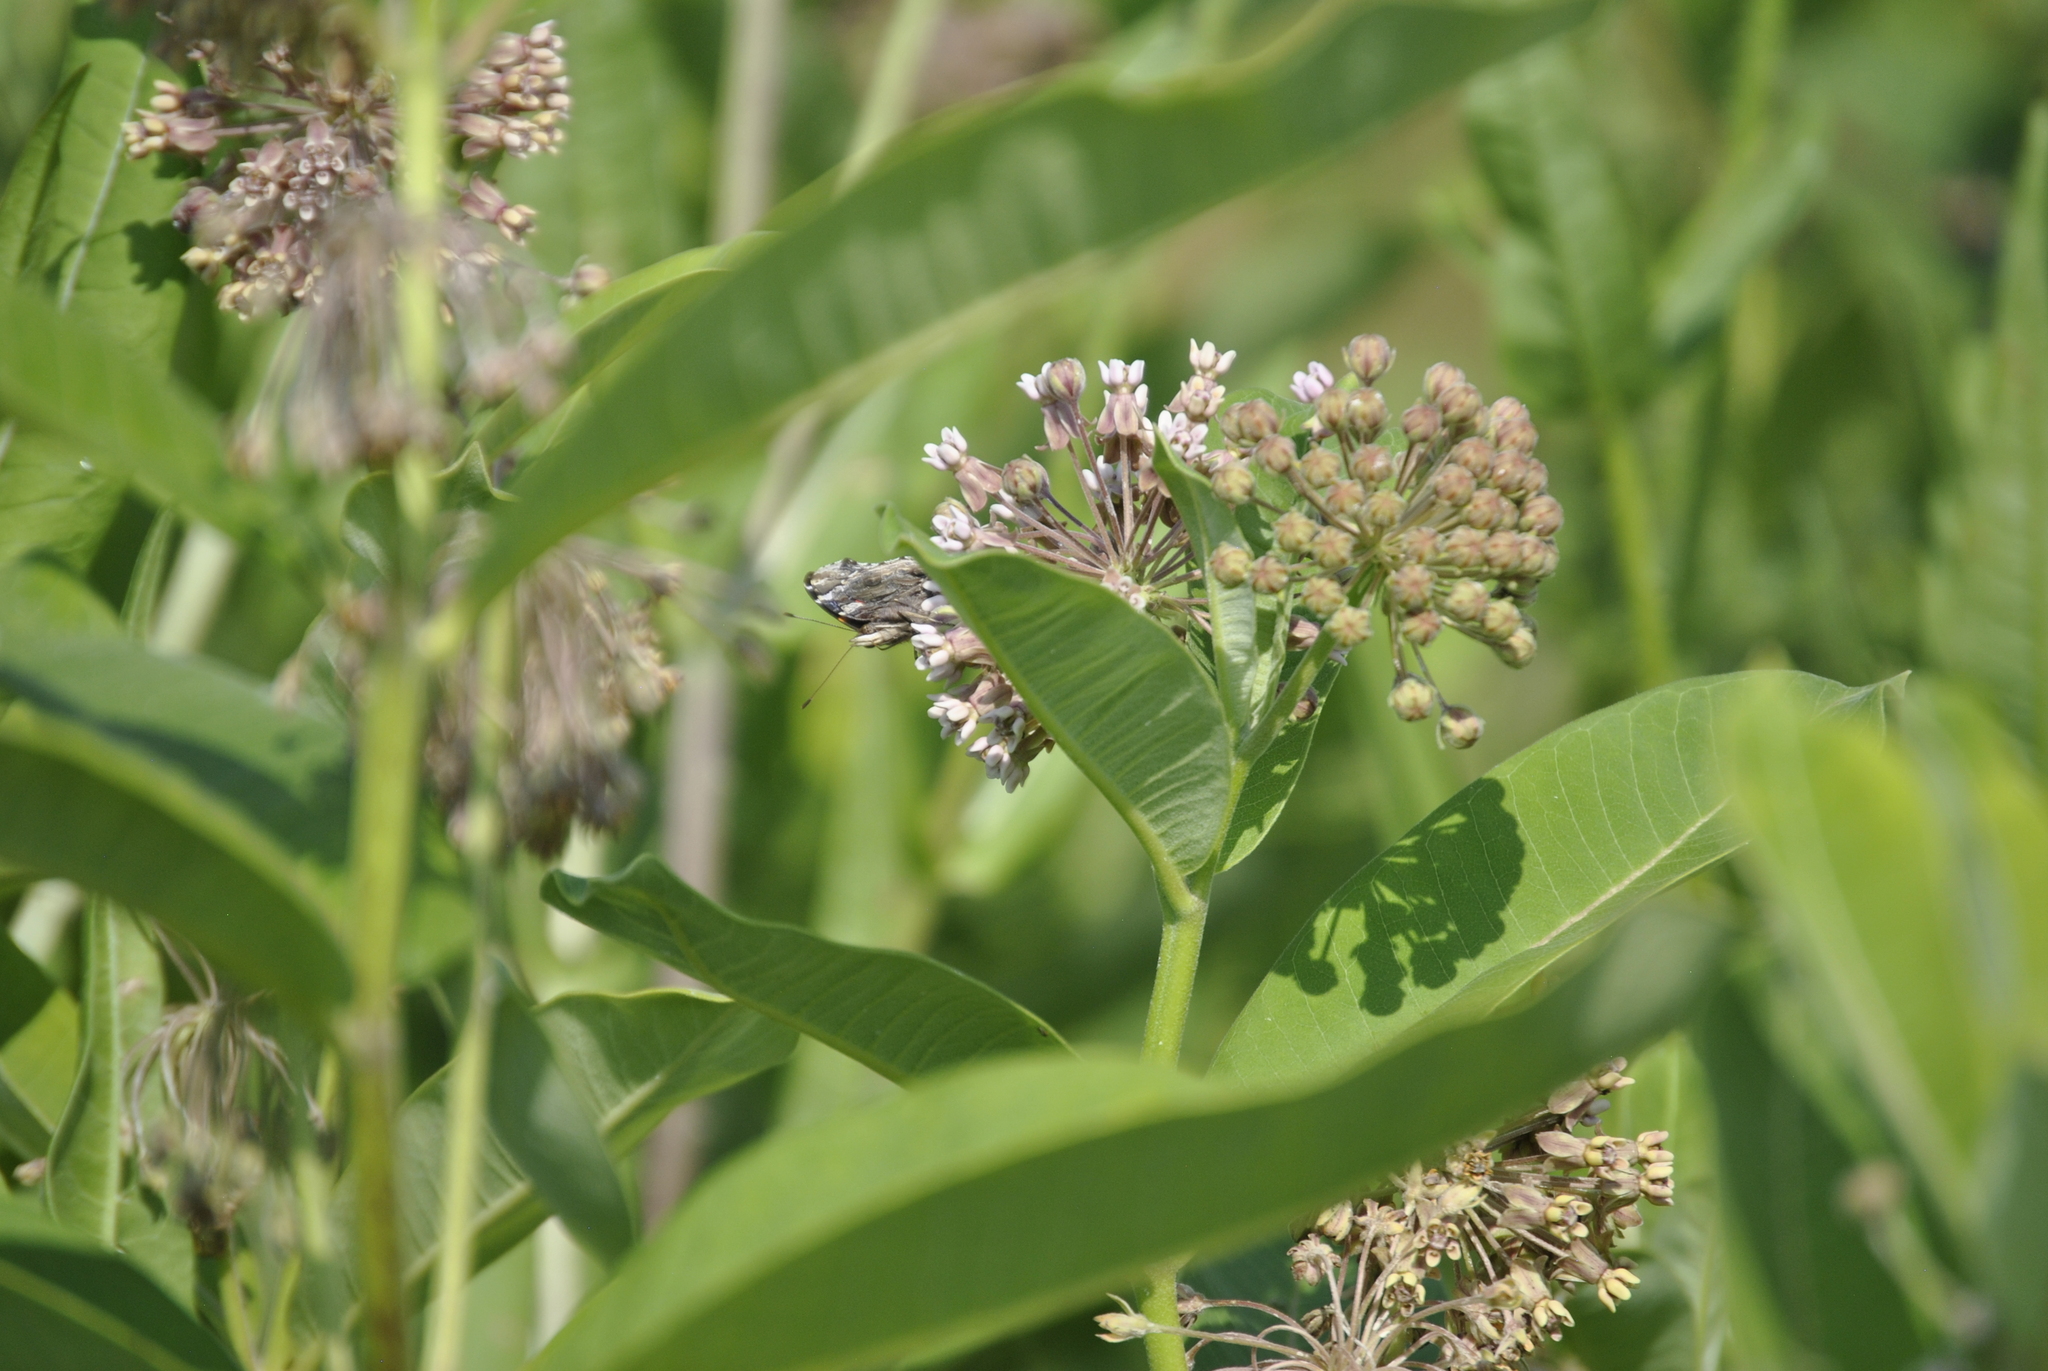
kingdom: Plantae
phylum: Tracheophyta
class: Magnoliopsida
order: Gentianales
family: Apocynaceae
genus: Asclepias
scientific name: Asclepias syriaca
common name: Common milkweed
